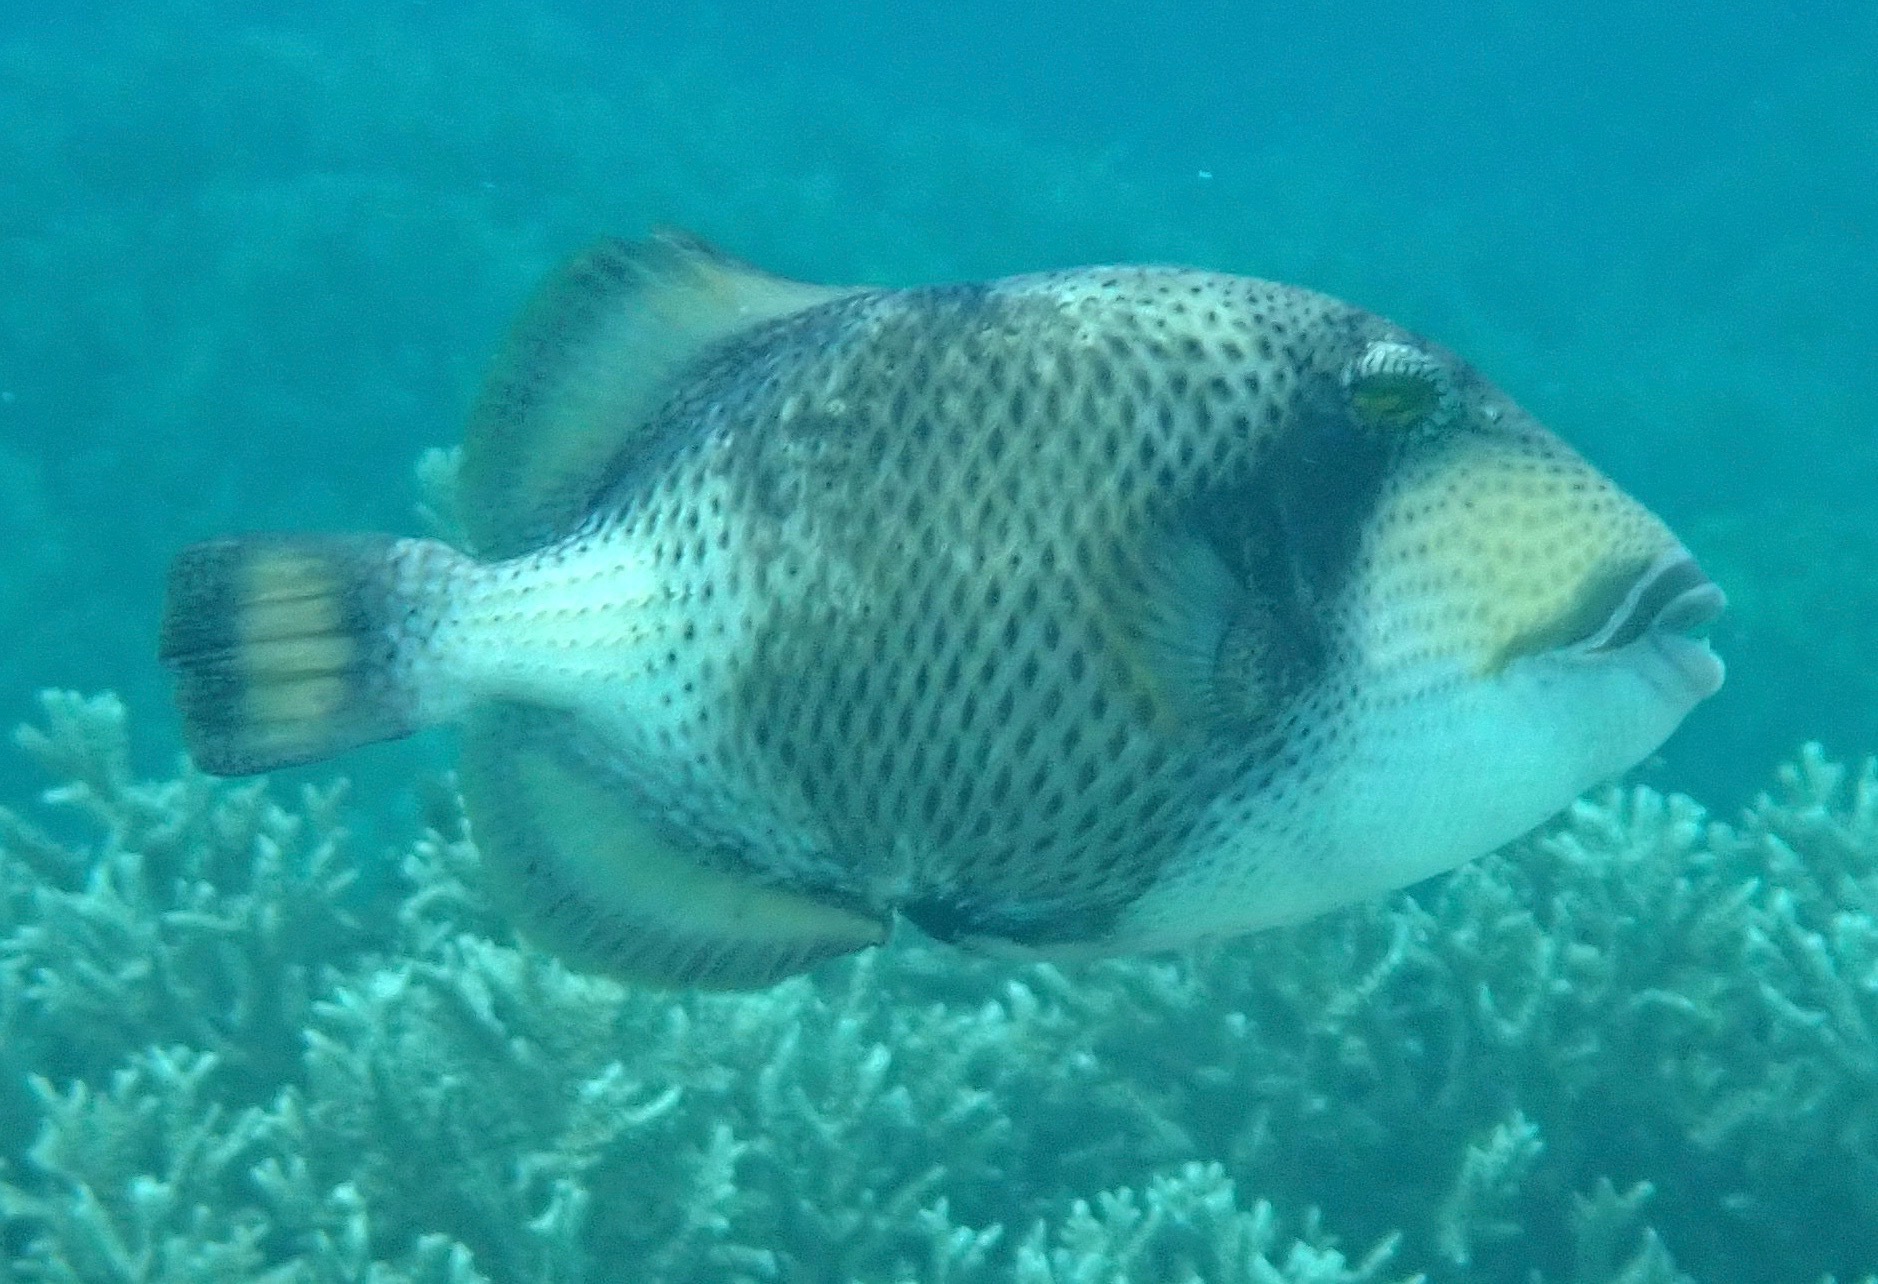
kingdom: Animalia
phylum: Chordata
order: Tetraodontiformes
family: Balistidae
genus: Balistoides
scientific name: Balistoides viridescens
